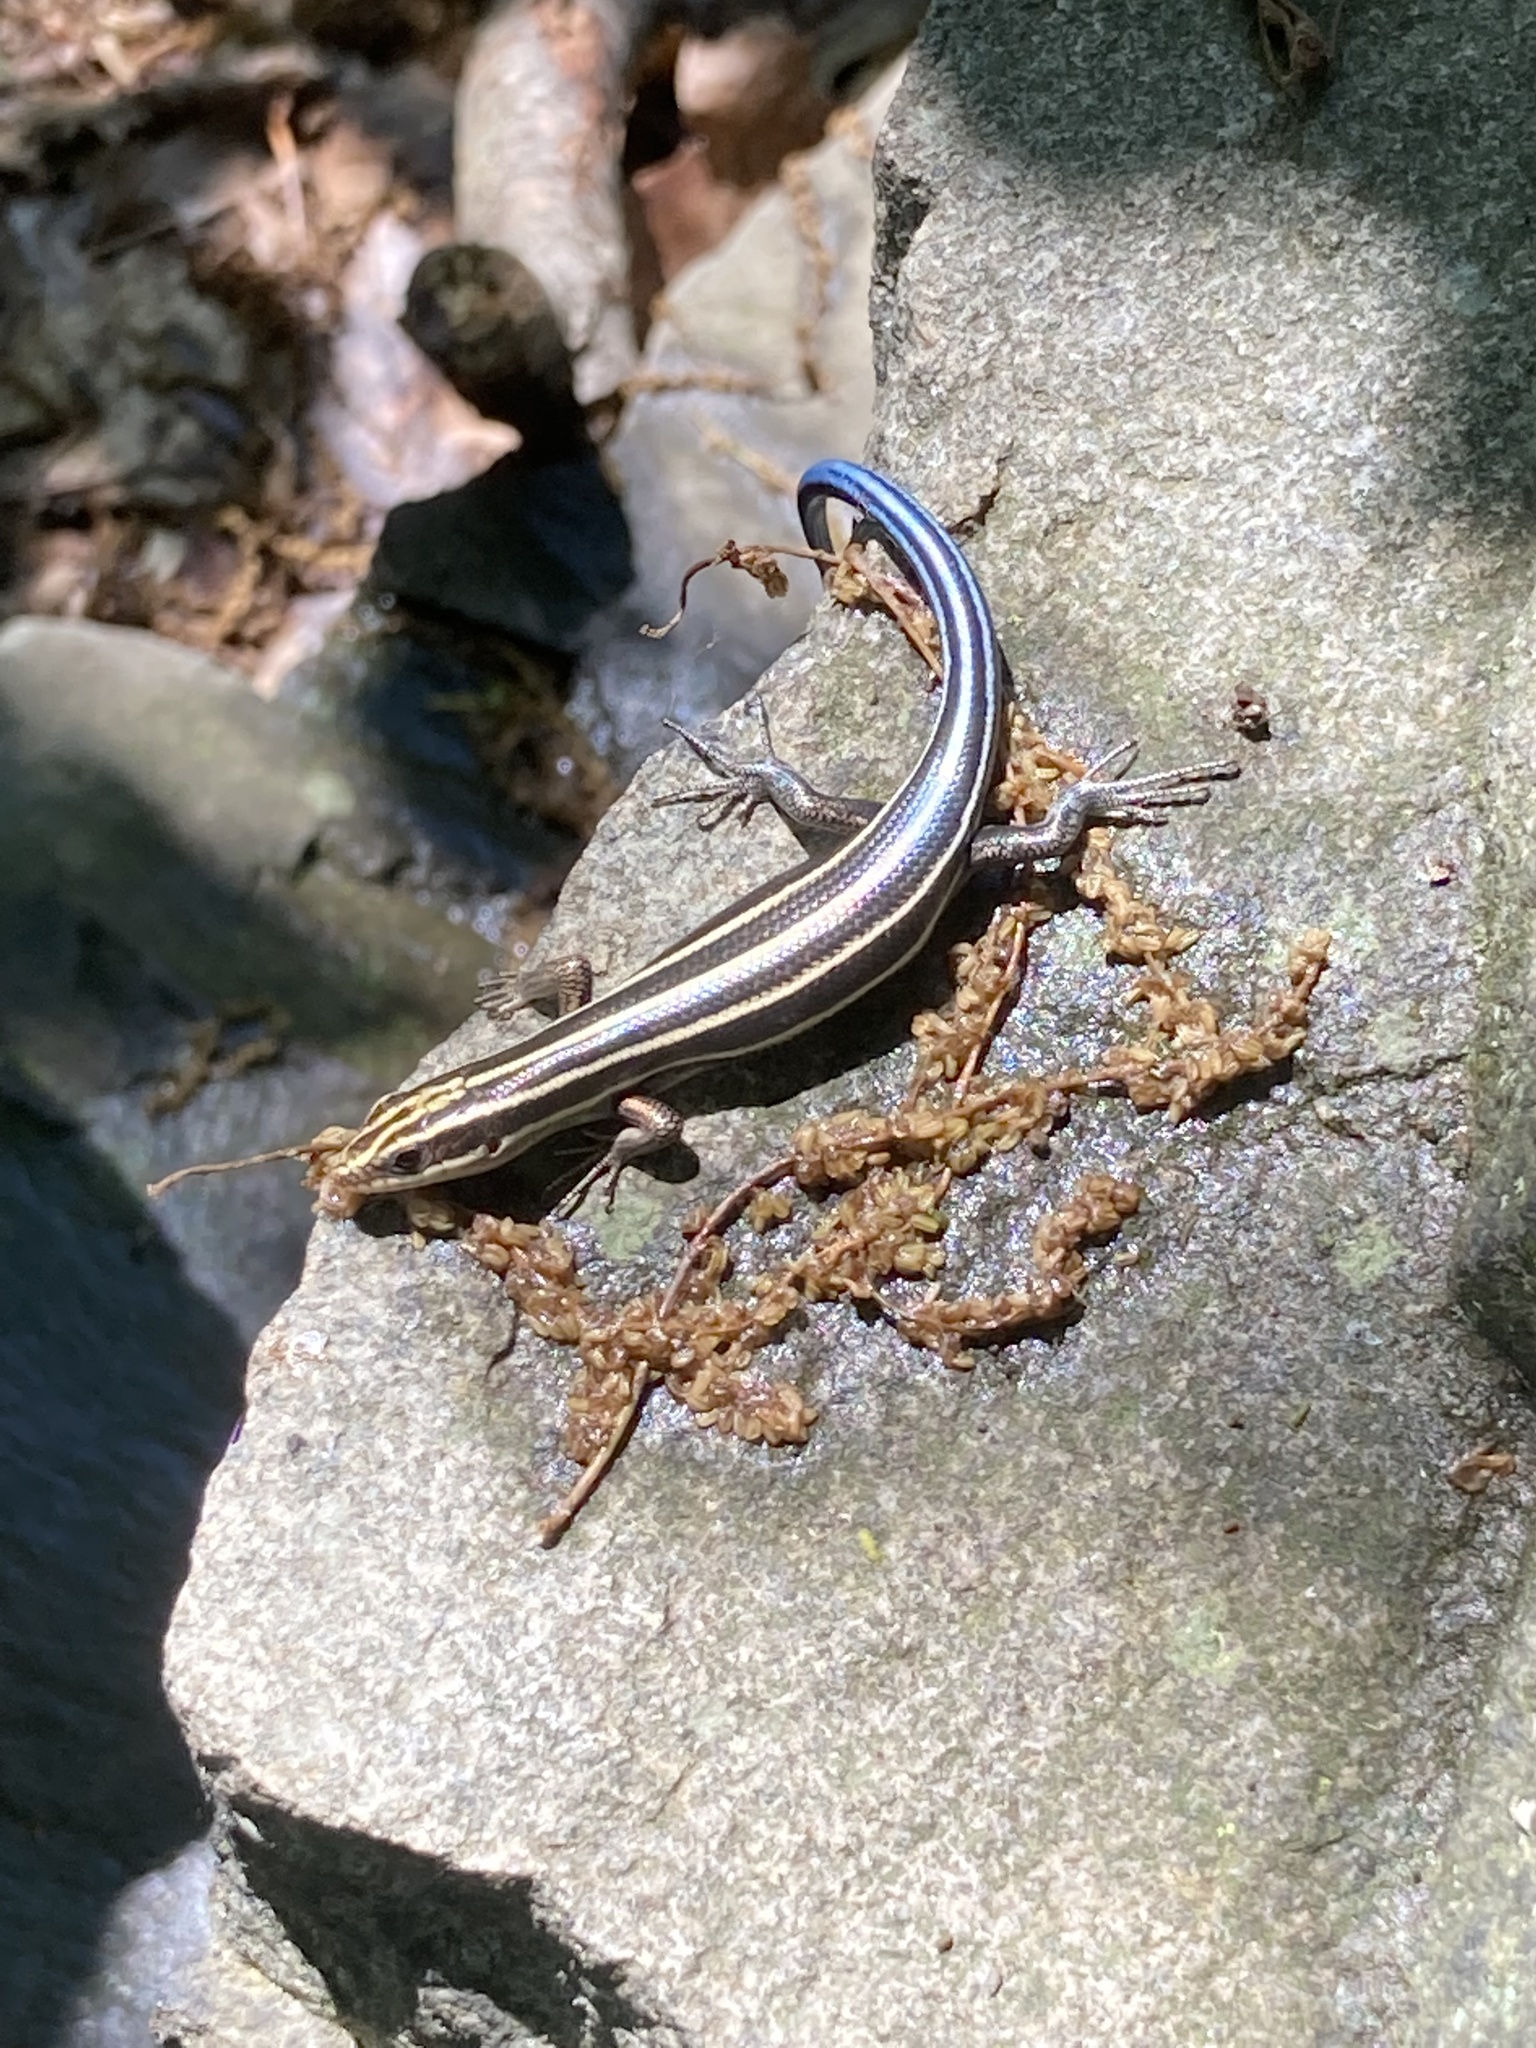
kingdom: Animalia
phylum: Chordata
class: Squamata
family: Scincidae
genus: Plestiodon
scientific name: Plestiodon fasciatus
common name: Five-lined skink
